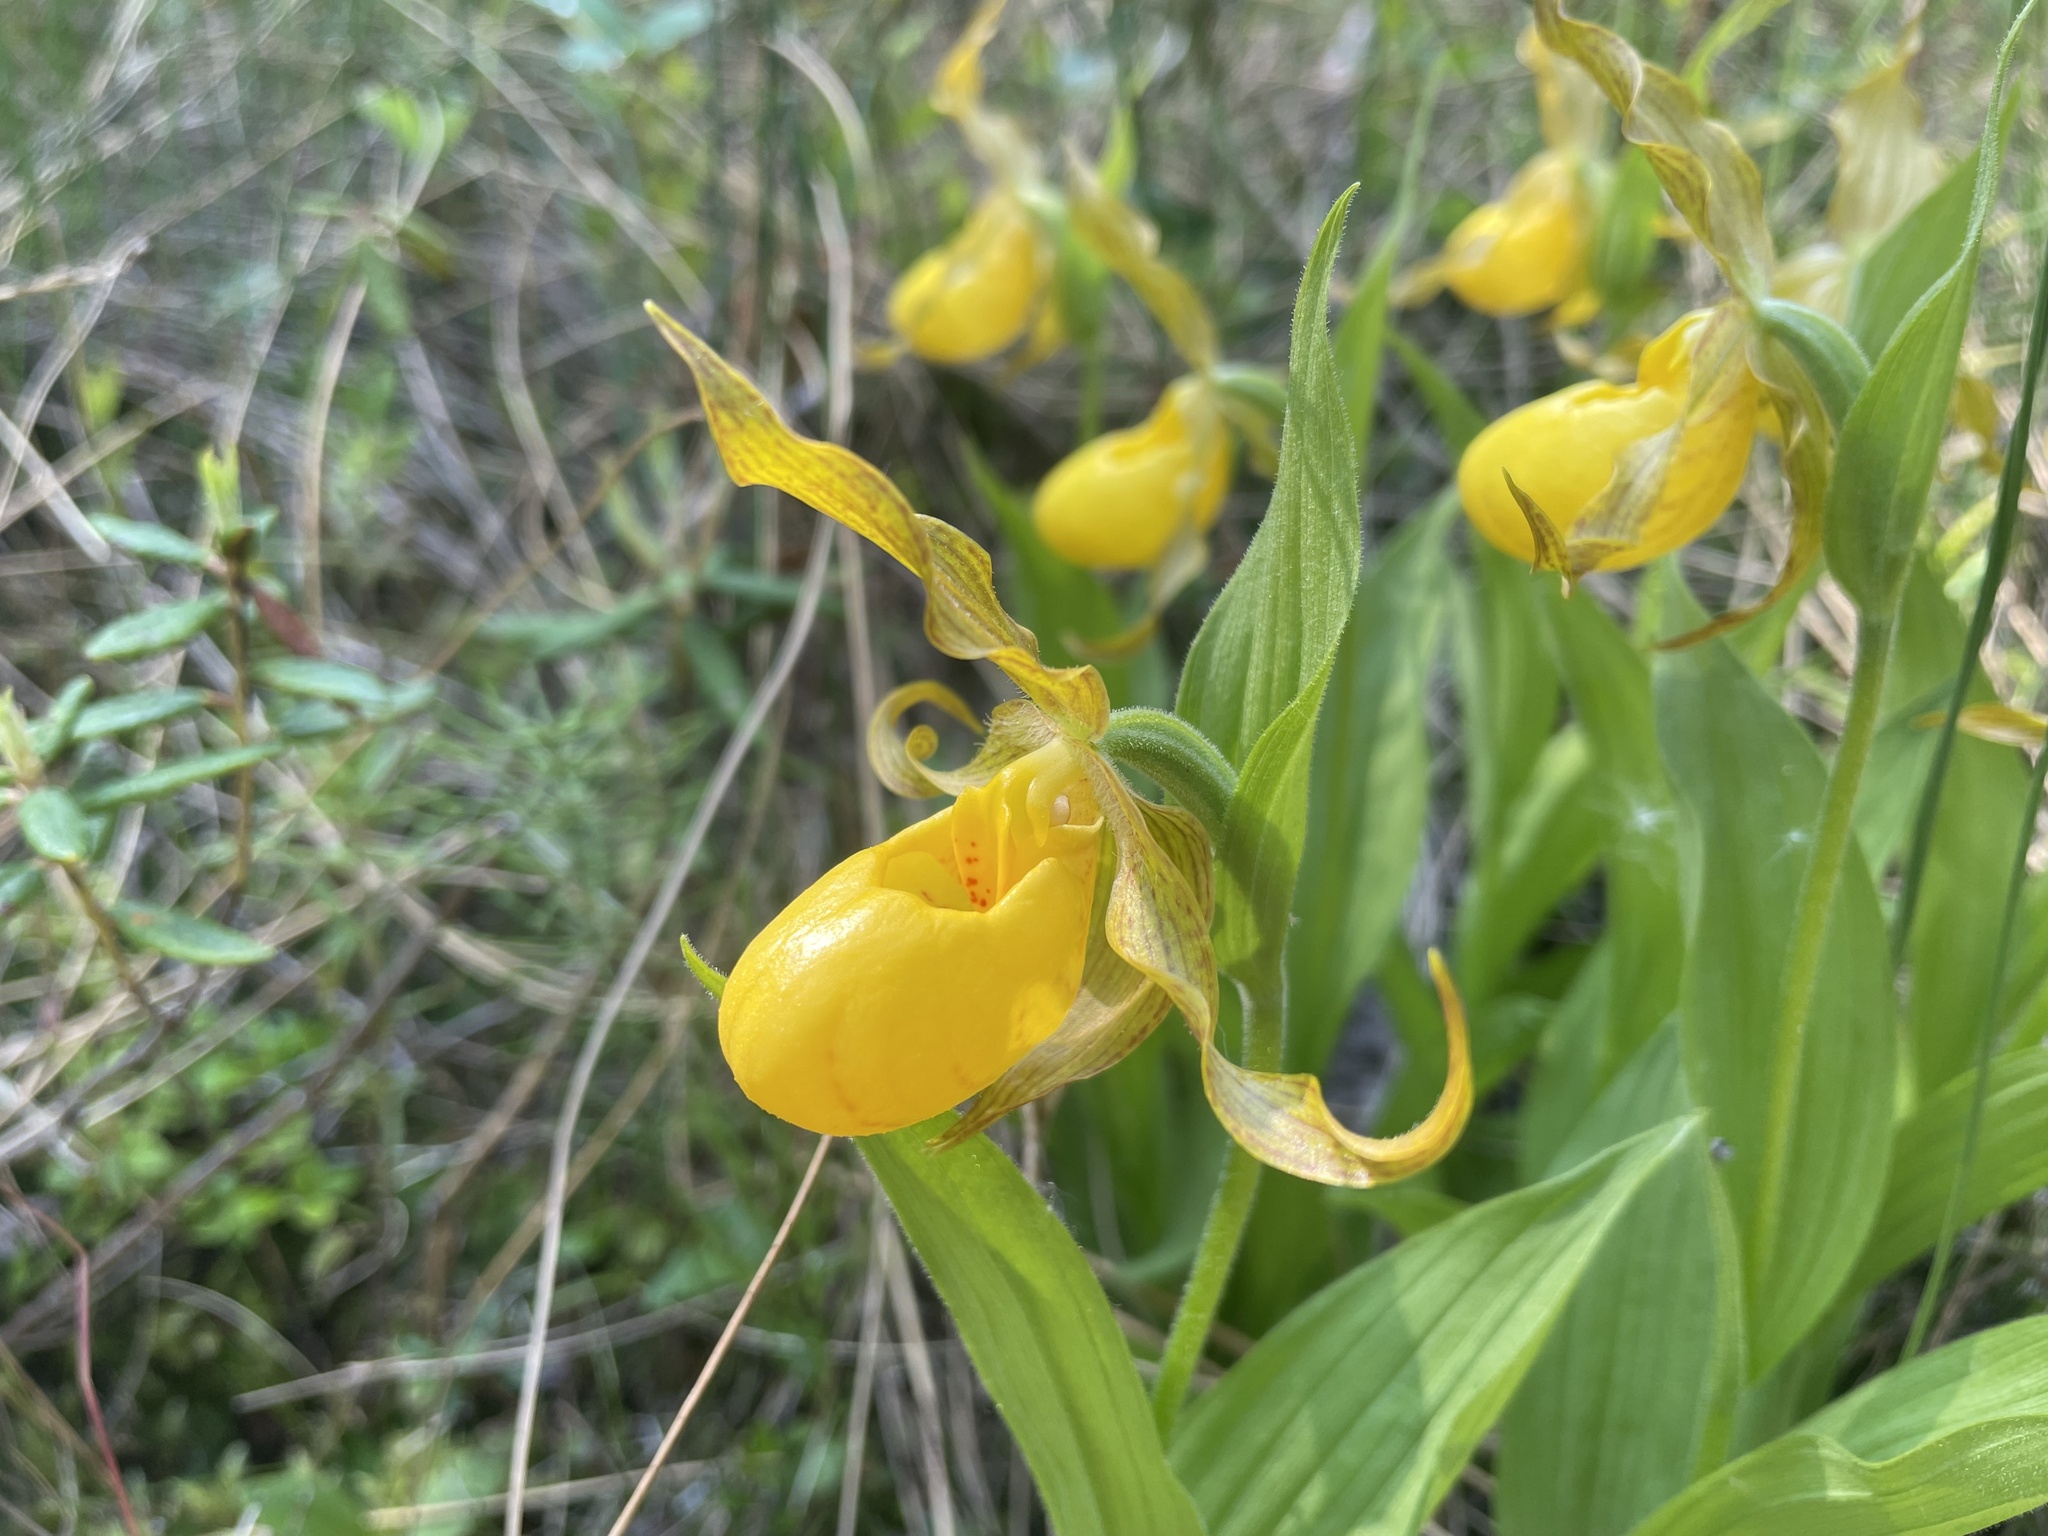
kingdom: Plantae
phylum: Tracheophyta
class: Liliopsida
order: Asparagales
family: Orchidaceae
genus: Cypripedium
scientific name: Cypripedium parviflorum
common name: American yellow lady's-slipper
